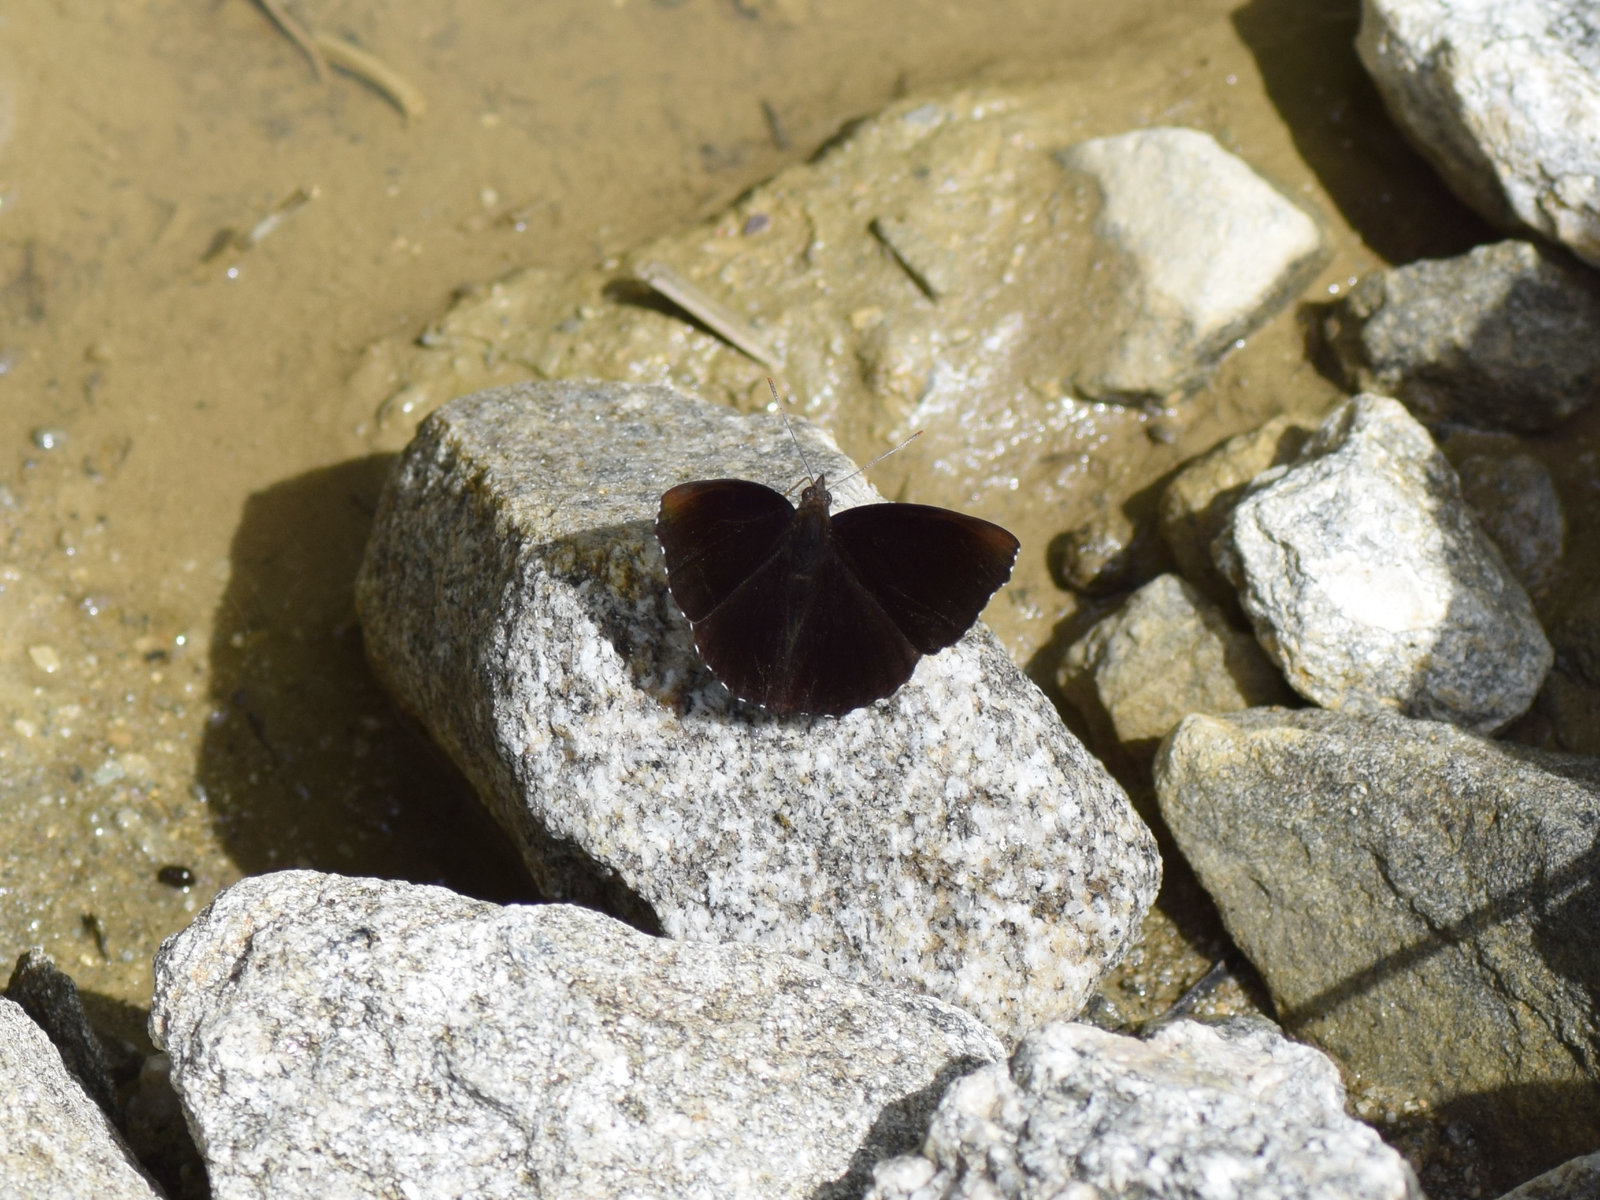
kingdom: Animalia
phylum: Arthropoda
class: Insecta
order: Lepidoptera
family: Nymphalidae
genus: Apatura
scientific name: Apatura Rohana spec
